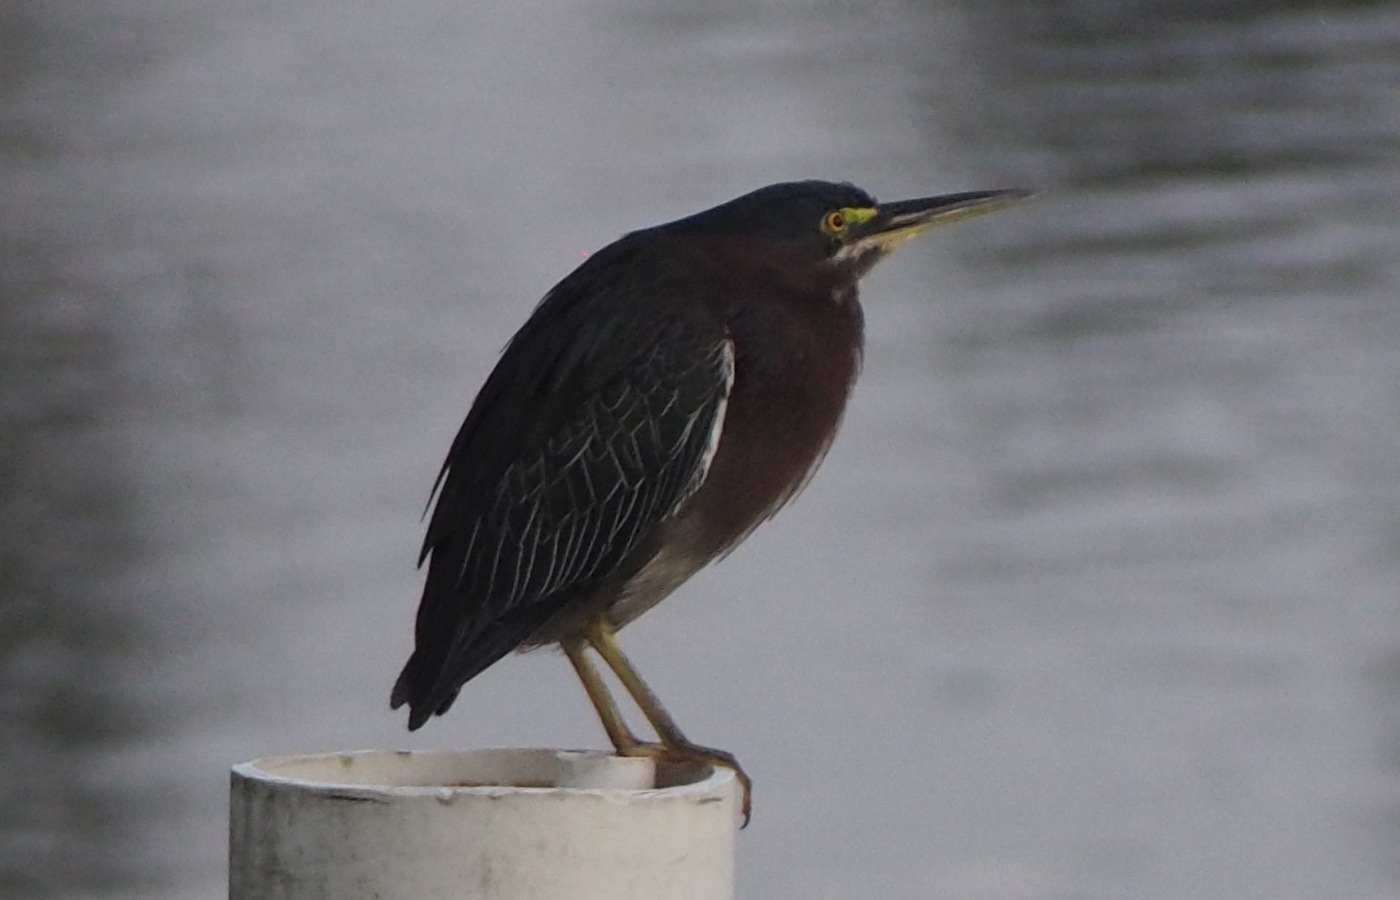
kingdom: Animalia
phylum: Chordata
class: Aves
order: Pelecaniformes
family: Ardeidae
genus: Butorides
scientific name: Butorides virescens
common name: Green heron
